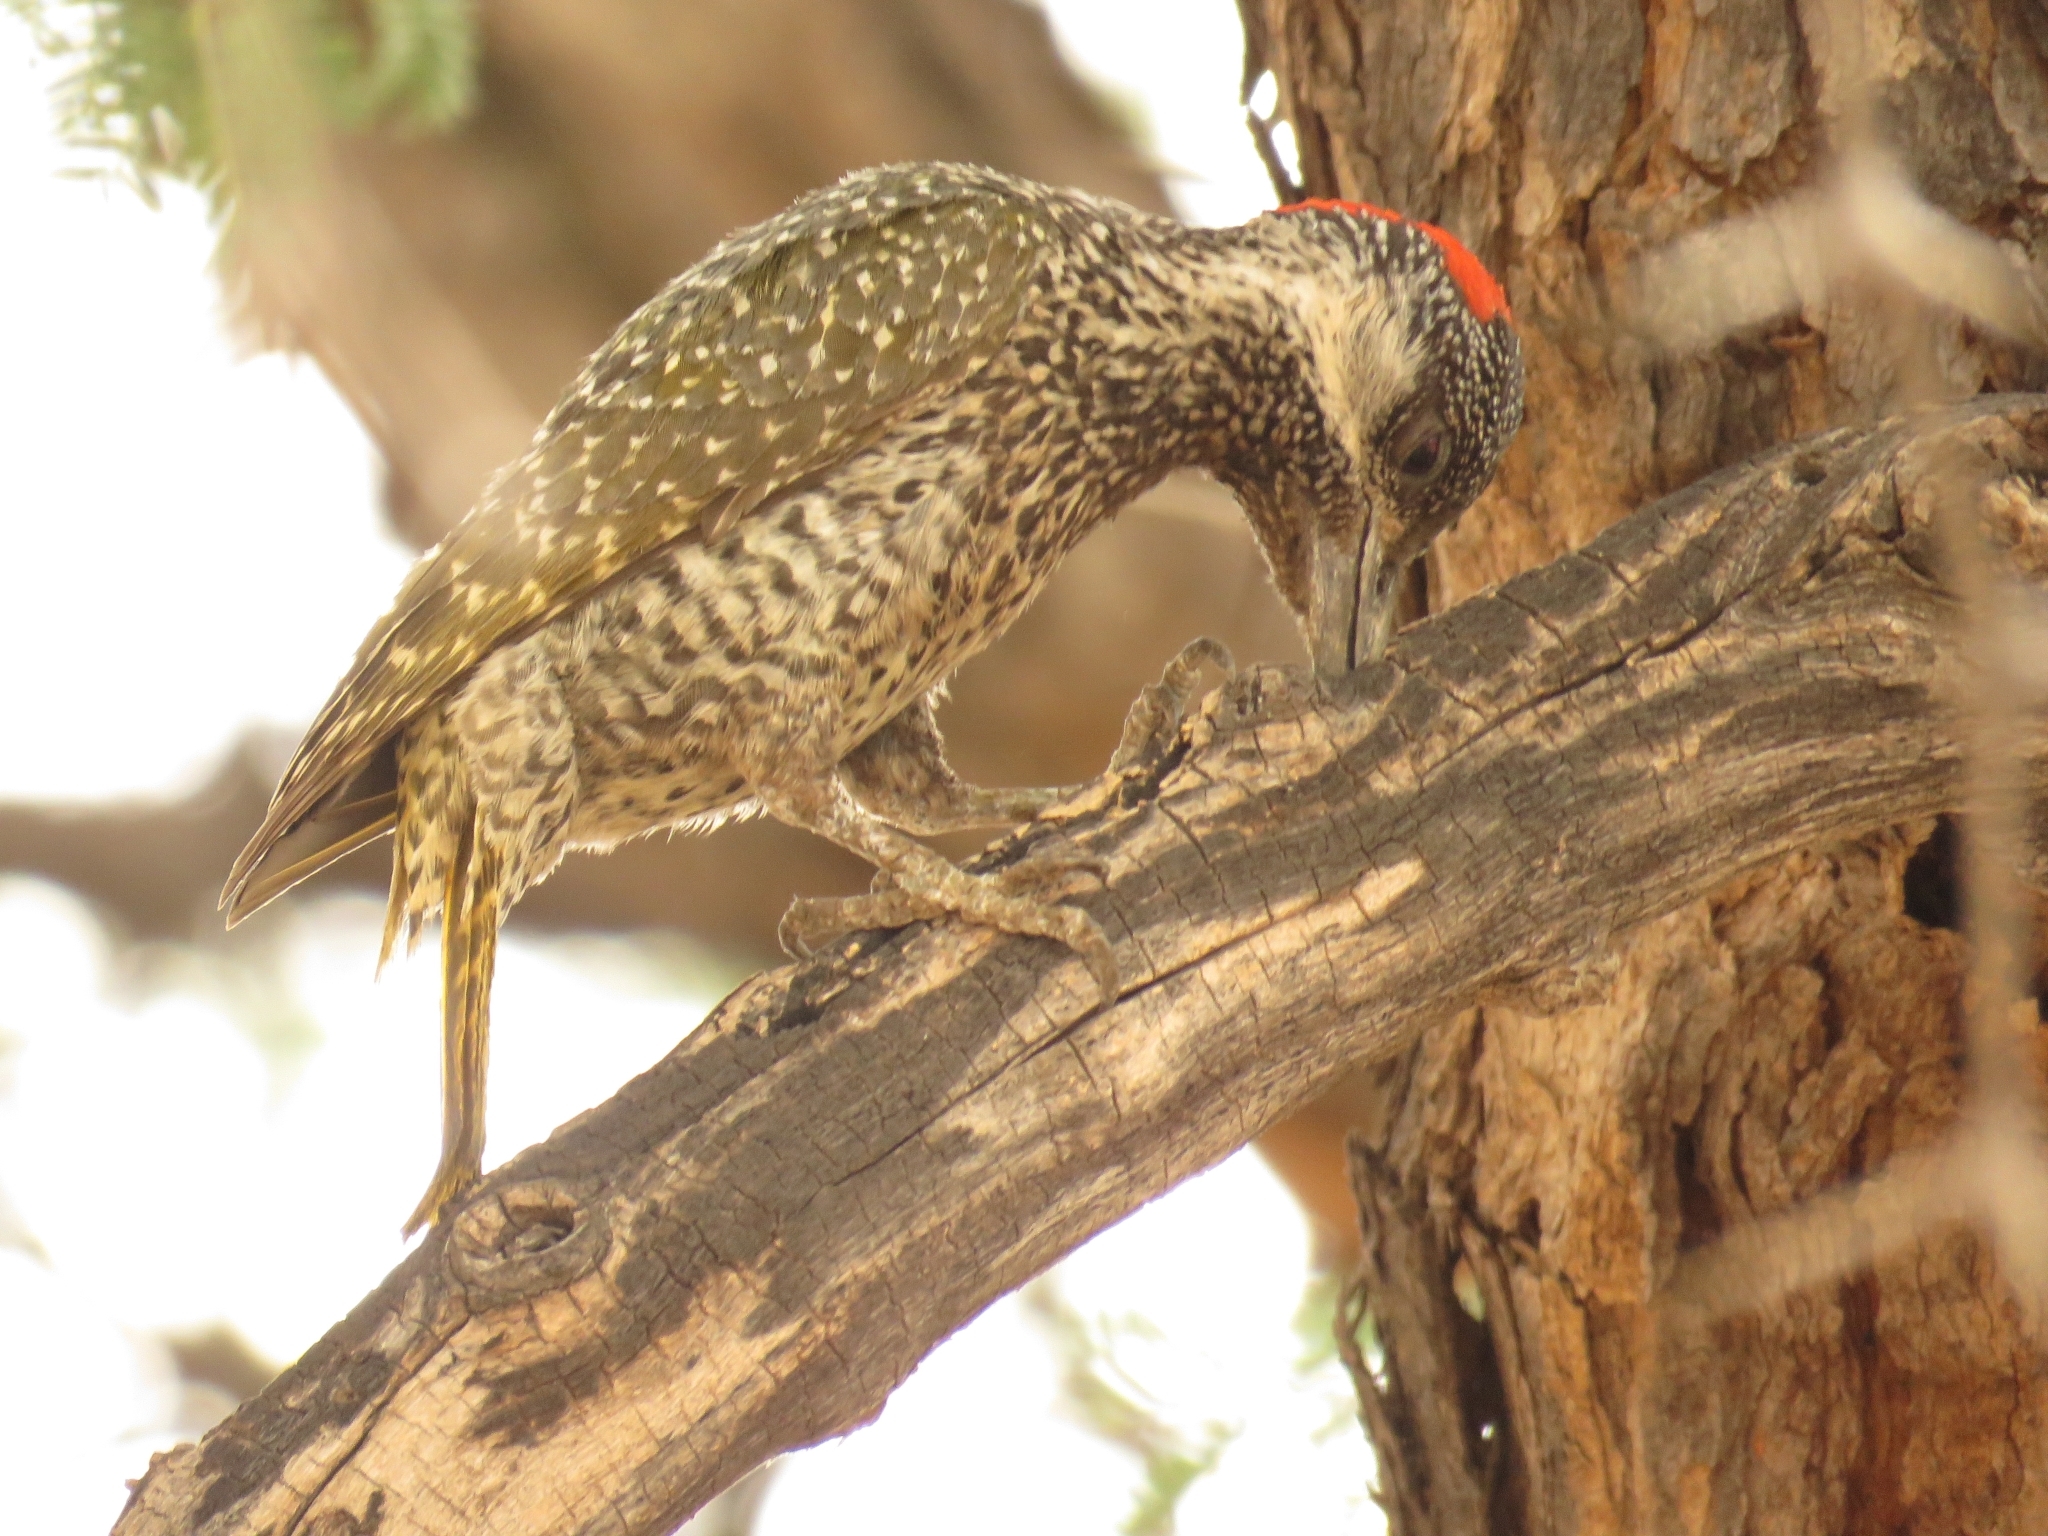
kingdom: Animalia
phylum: Chordata
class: Aves
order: Piciformes
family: Picidae
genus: Campethera
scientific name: Campethera abingoni
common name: Golden-tailed woodpecker
